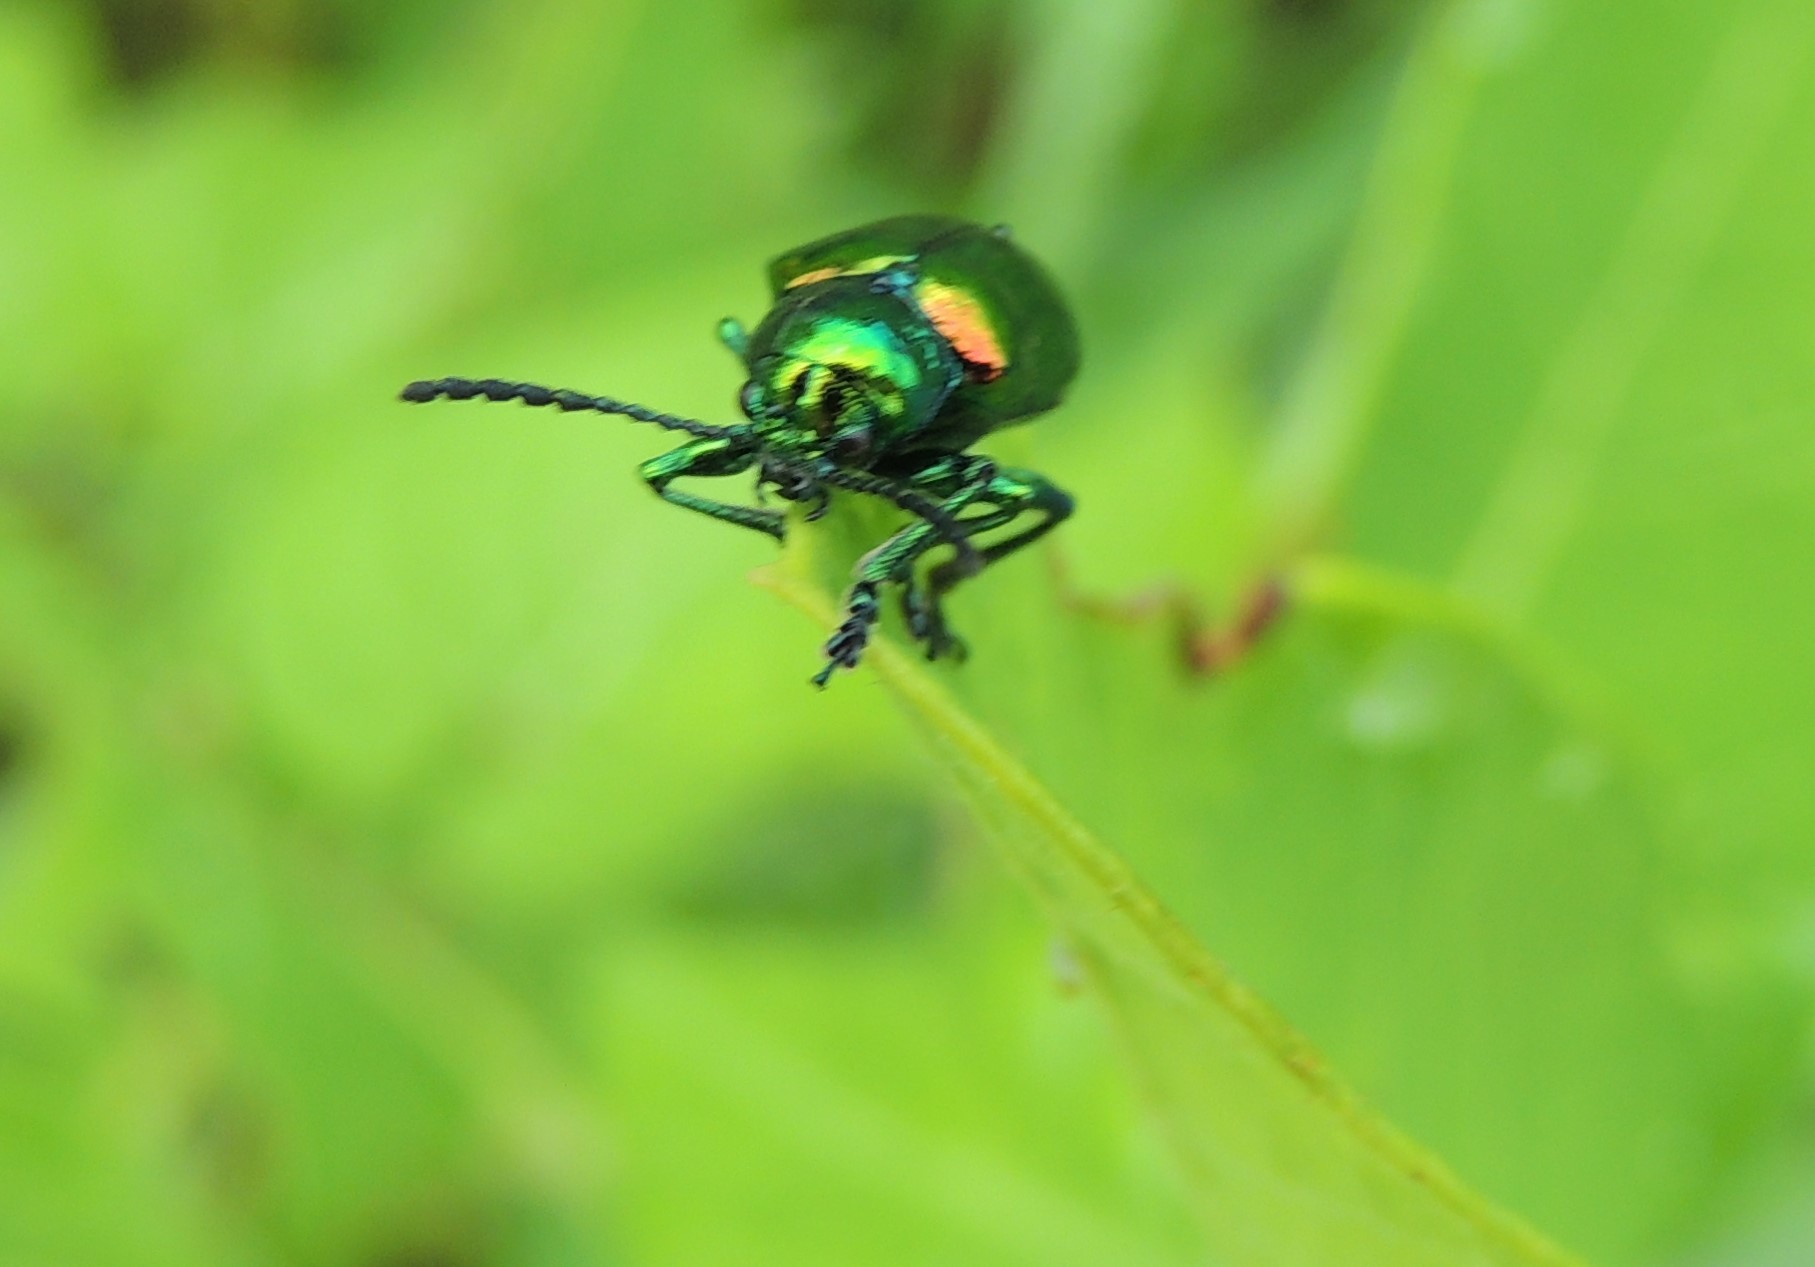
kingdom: Animalia
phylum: Arthropoda
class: Insecta
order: Coleoptera
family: Chrysomelidae
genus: Chrysochus
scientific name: Chrysochus auratus
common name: Dogbane leaf beetle
